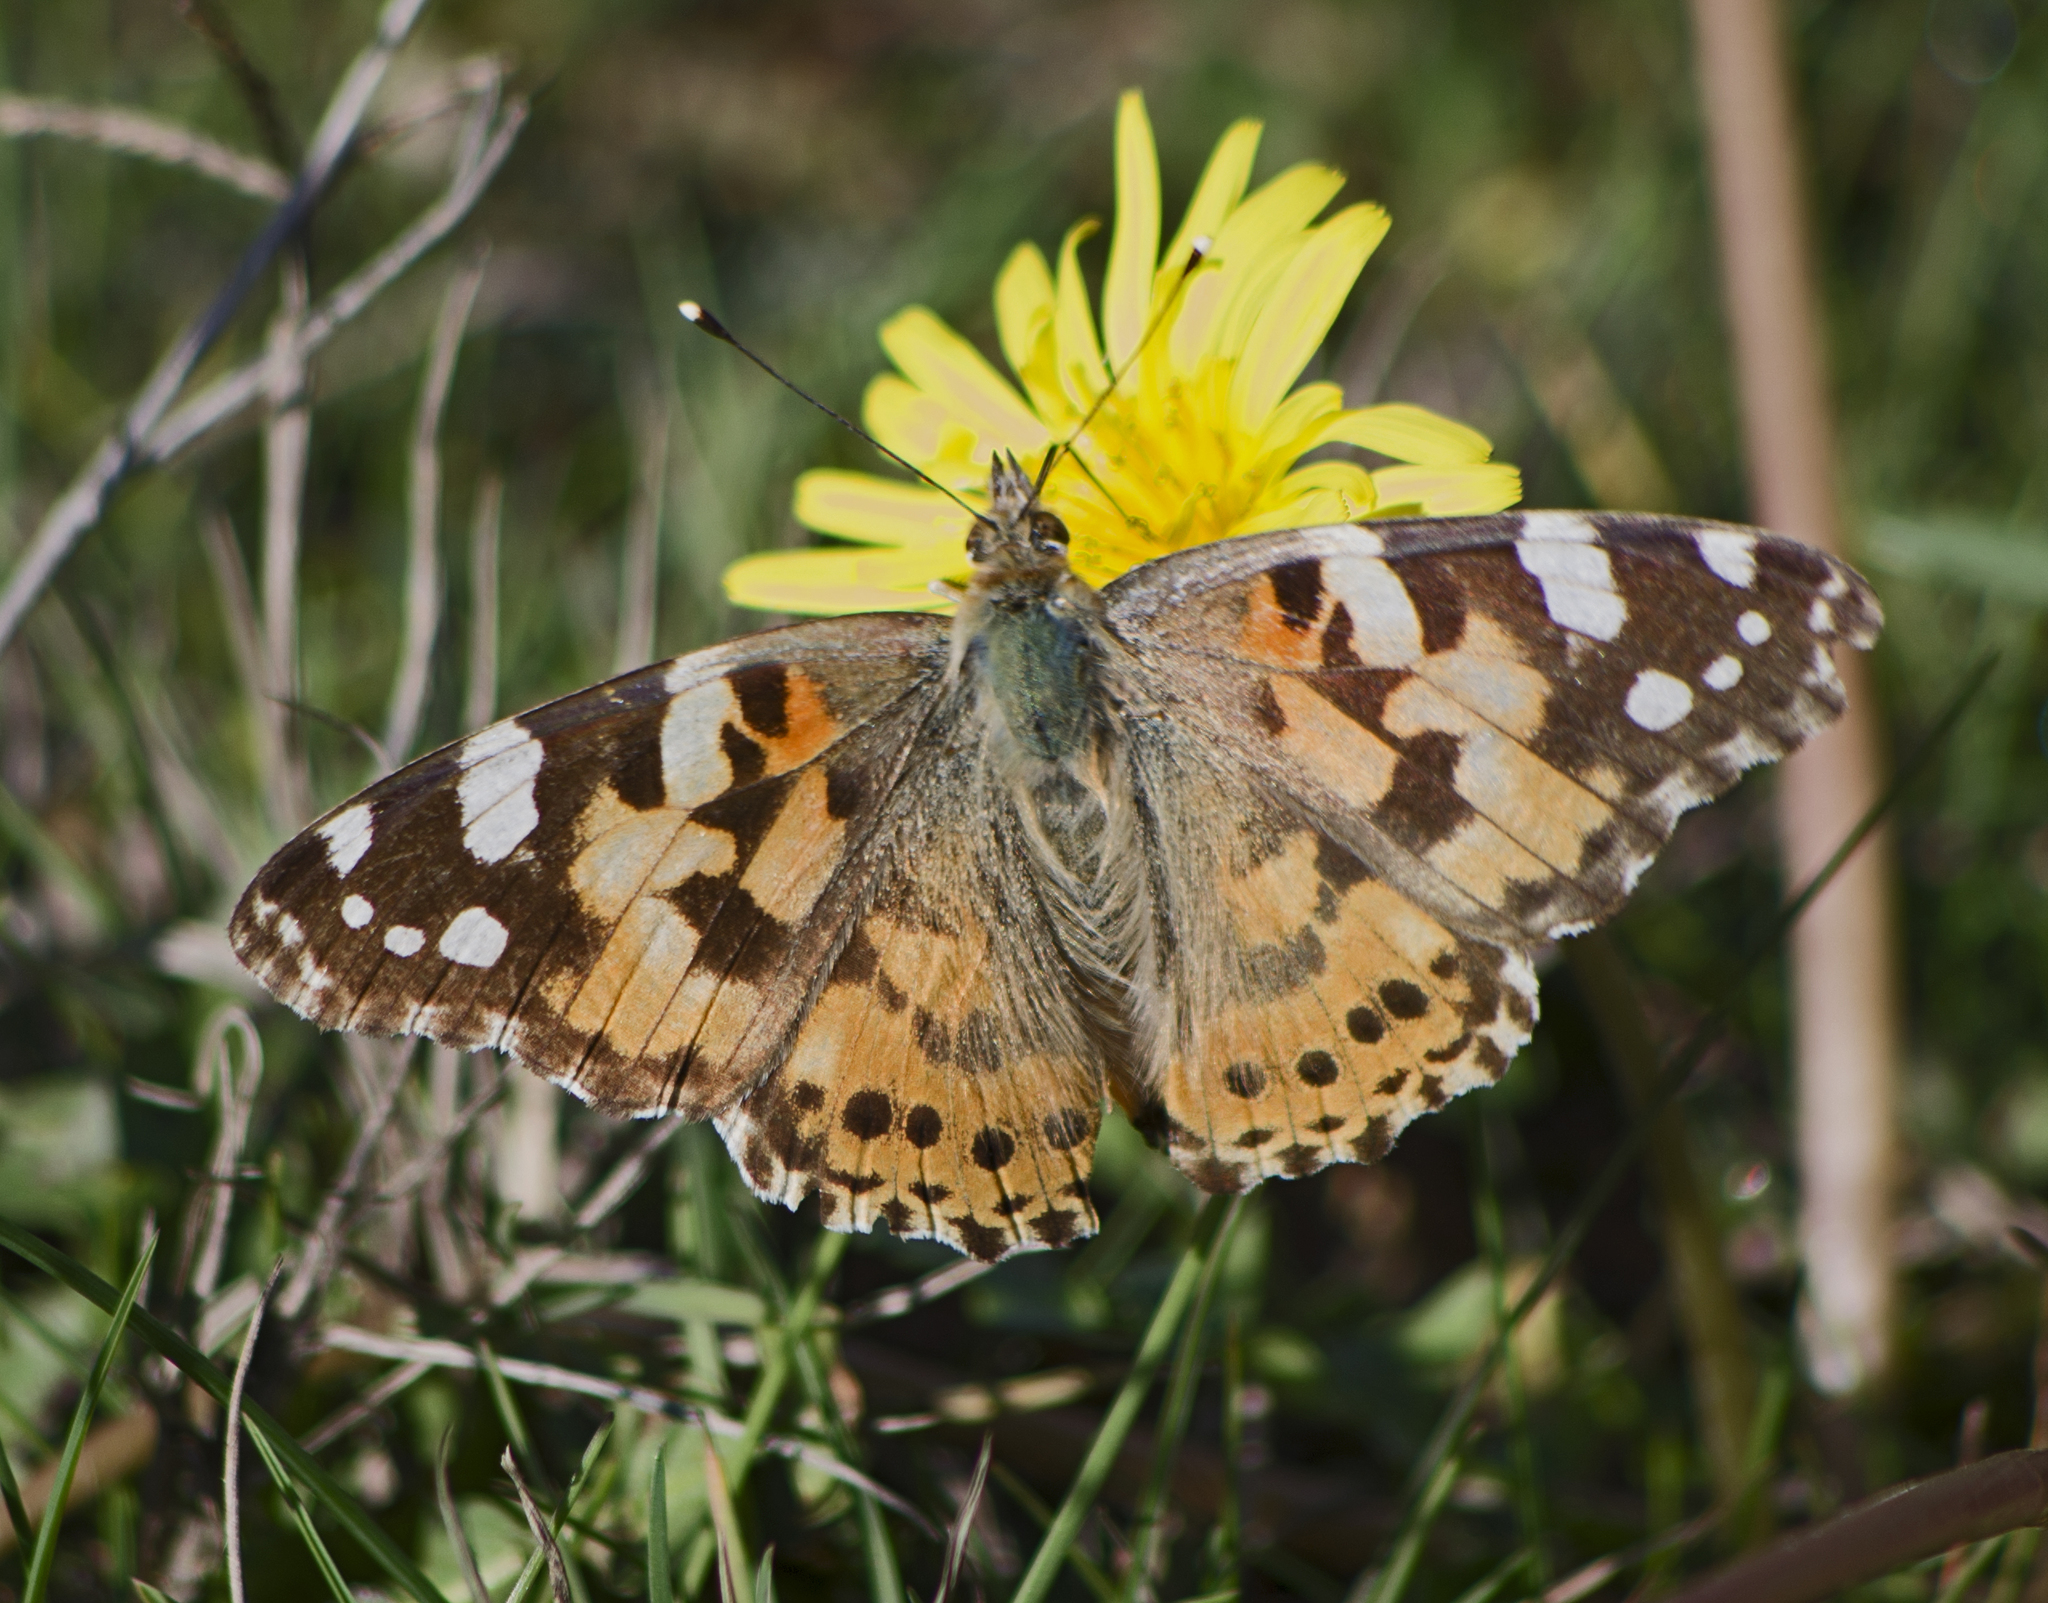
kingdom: Animalia
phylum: Arthropoda
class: Insecta
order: Lepidoptera
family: Nymphalidae
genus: Vanessa
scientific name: Vanessa cardui
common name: Painted lady
